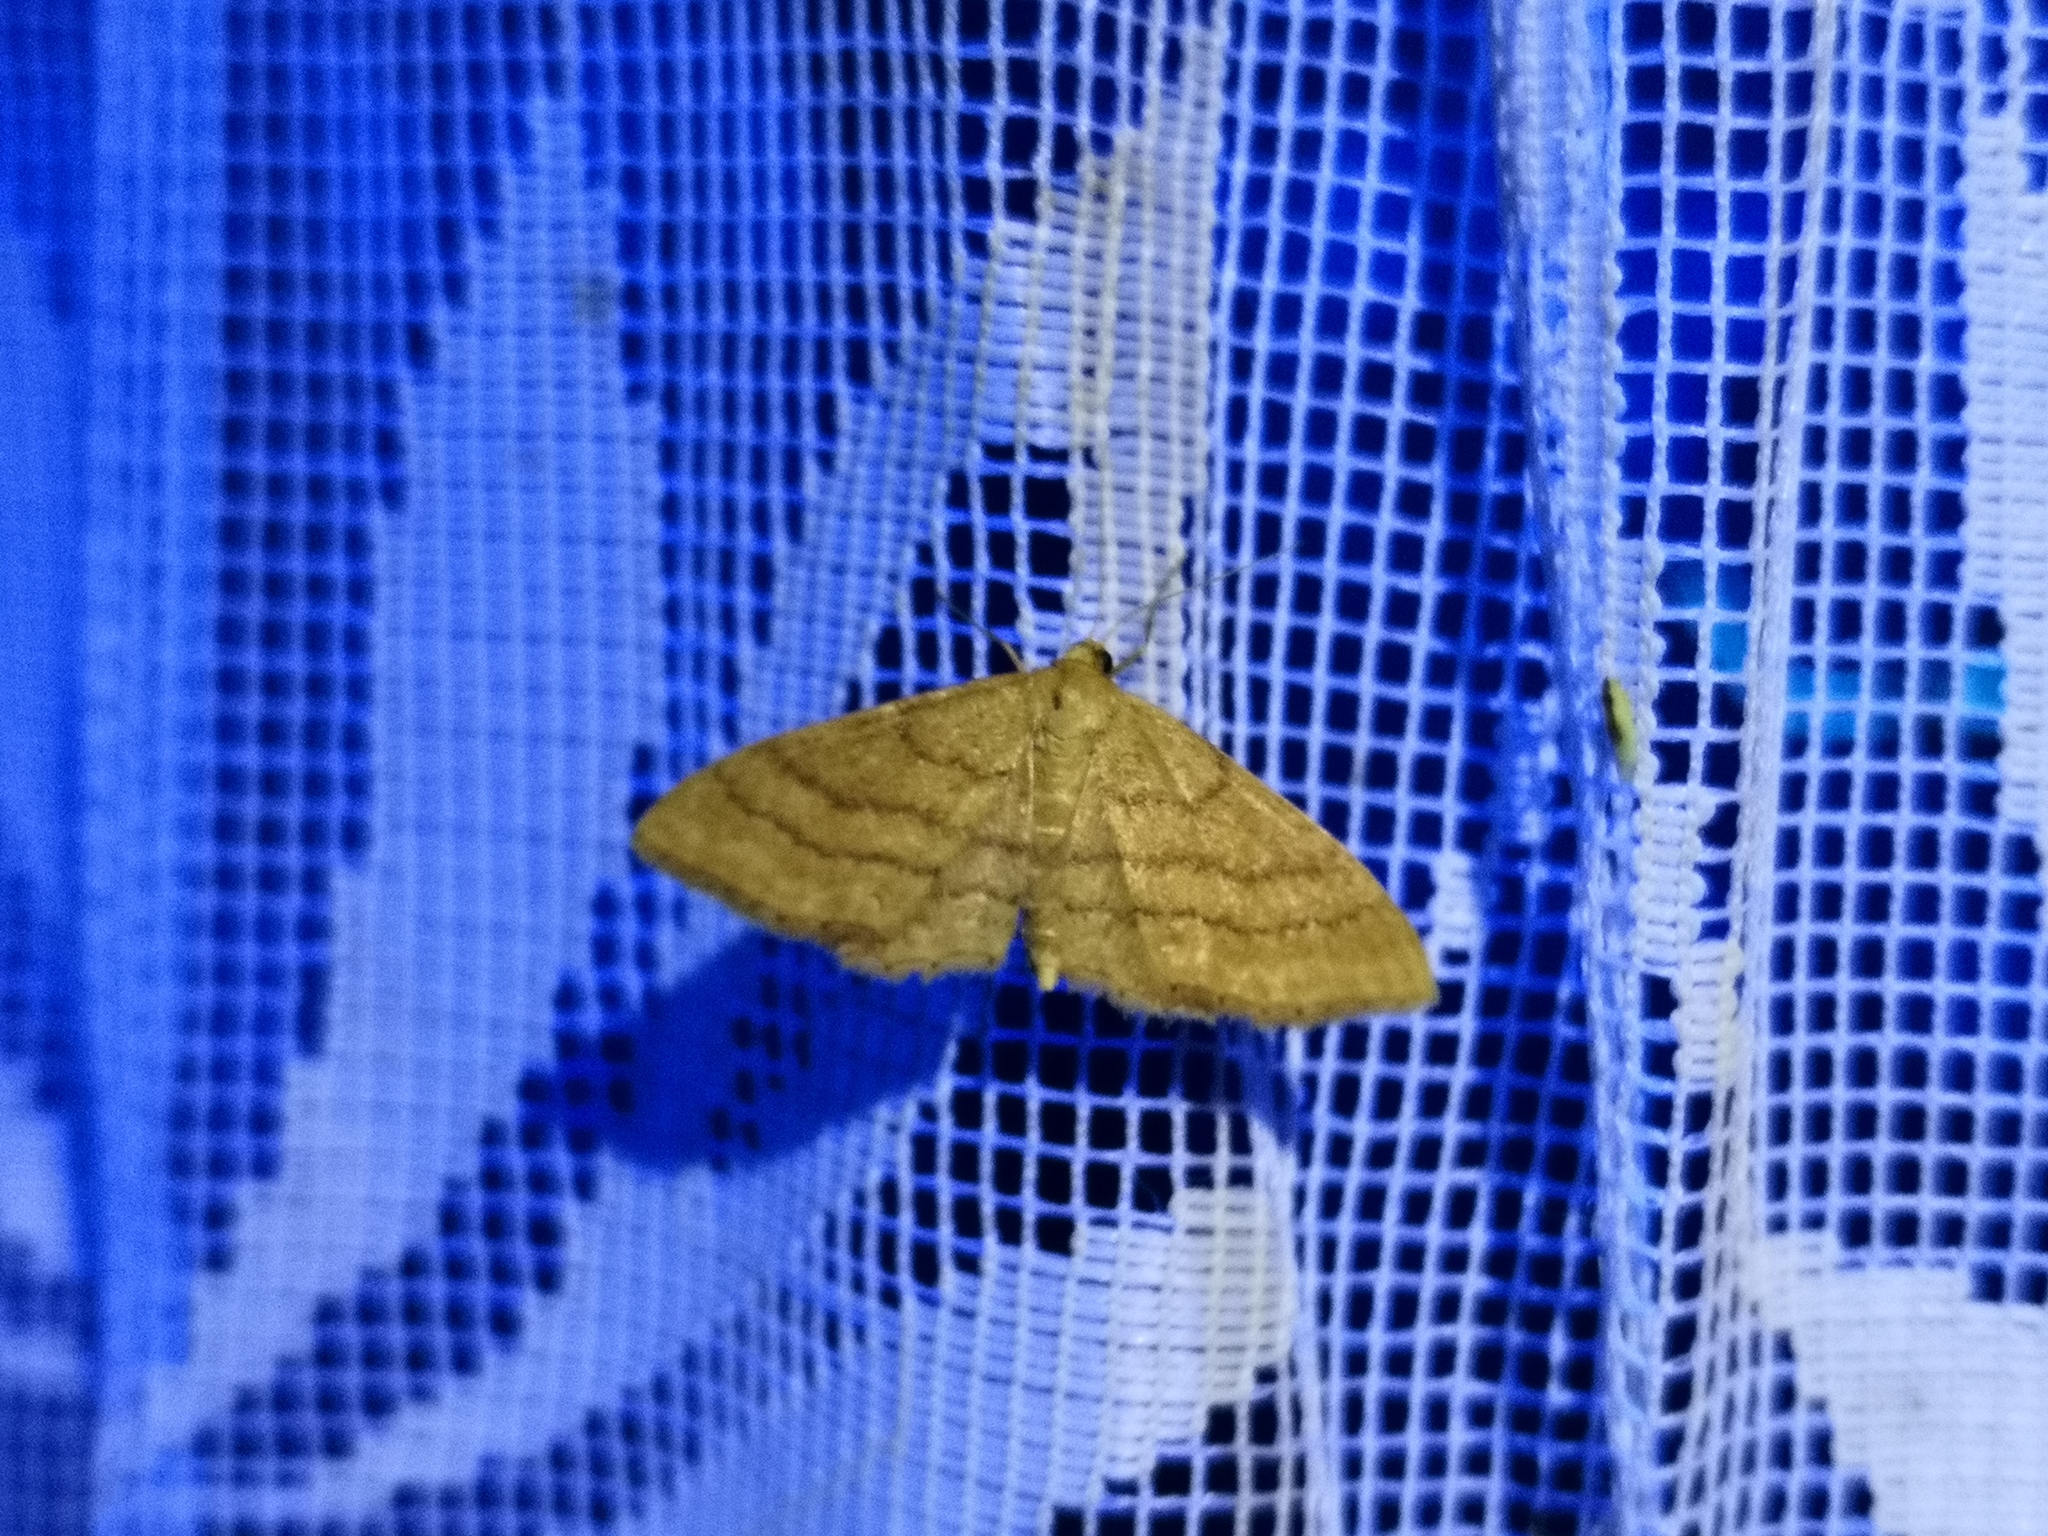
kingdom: Animalia
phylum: Arthropoda
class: Insecta
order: Lepidoptera
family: Geometridae
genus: Idaea
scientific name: Idaea ochrata
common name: Bright wave
